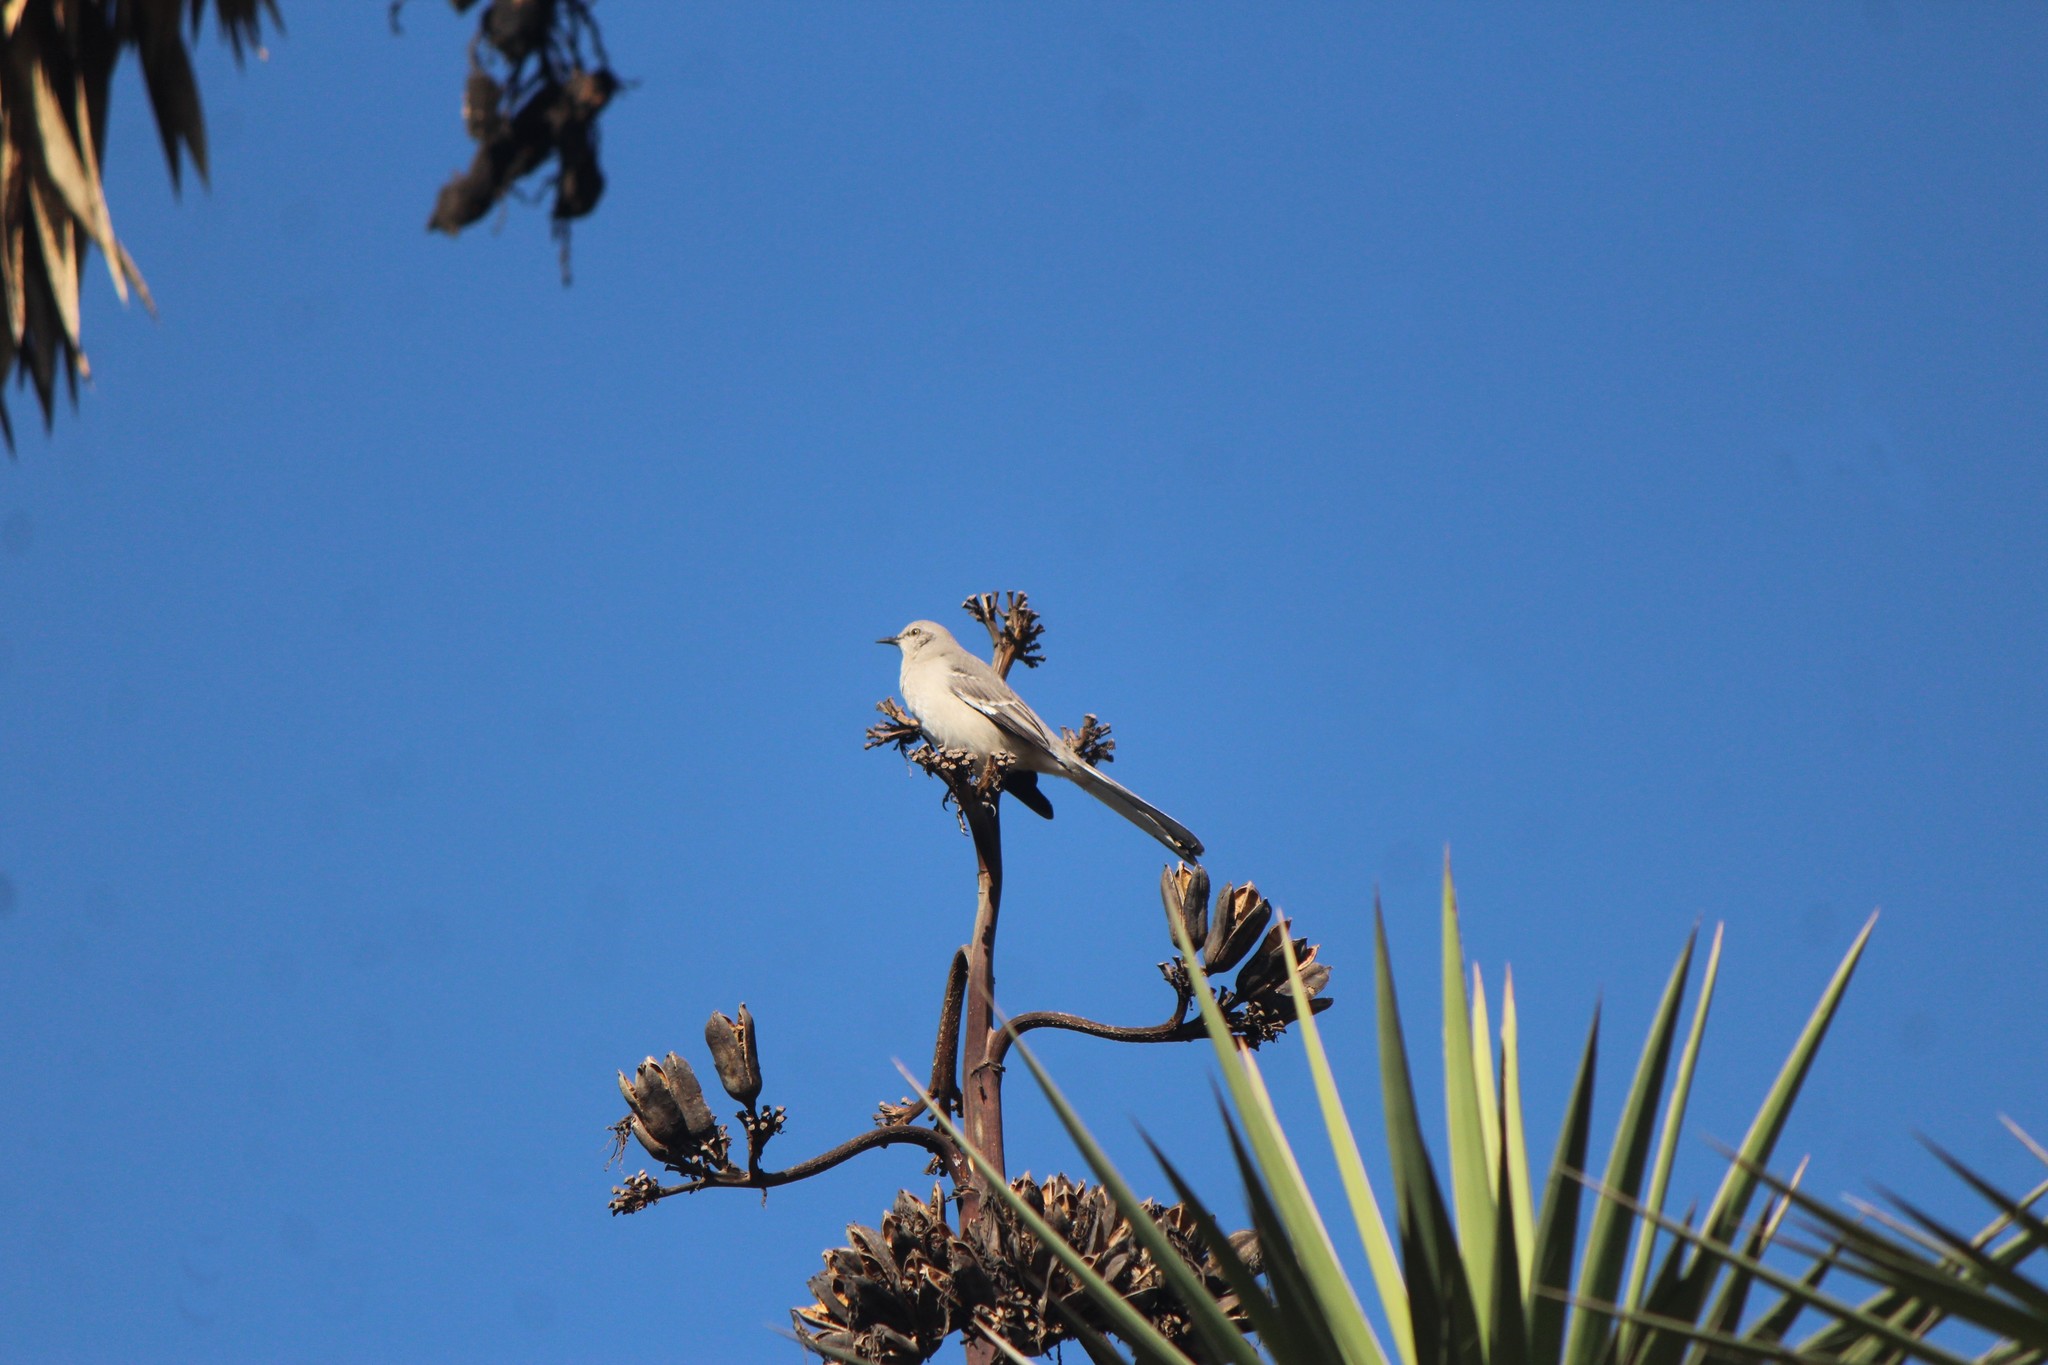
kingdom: Animalia
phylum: Chordata
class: Aves
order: Passeriformes
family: Mimidae
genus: Mimus
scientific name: Mimus polyglottos
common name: Northern mockingbird
